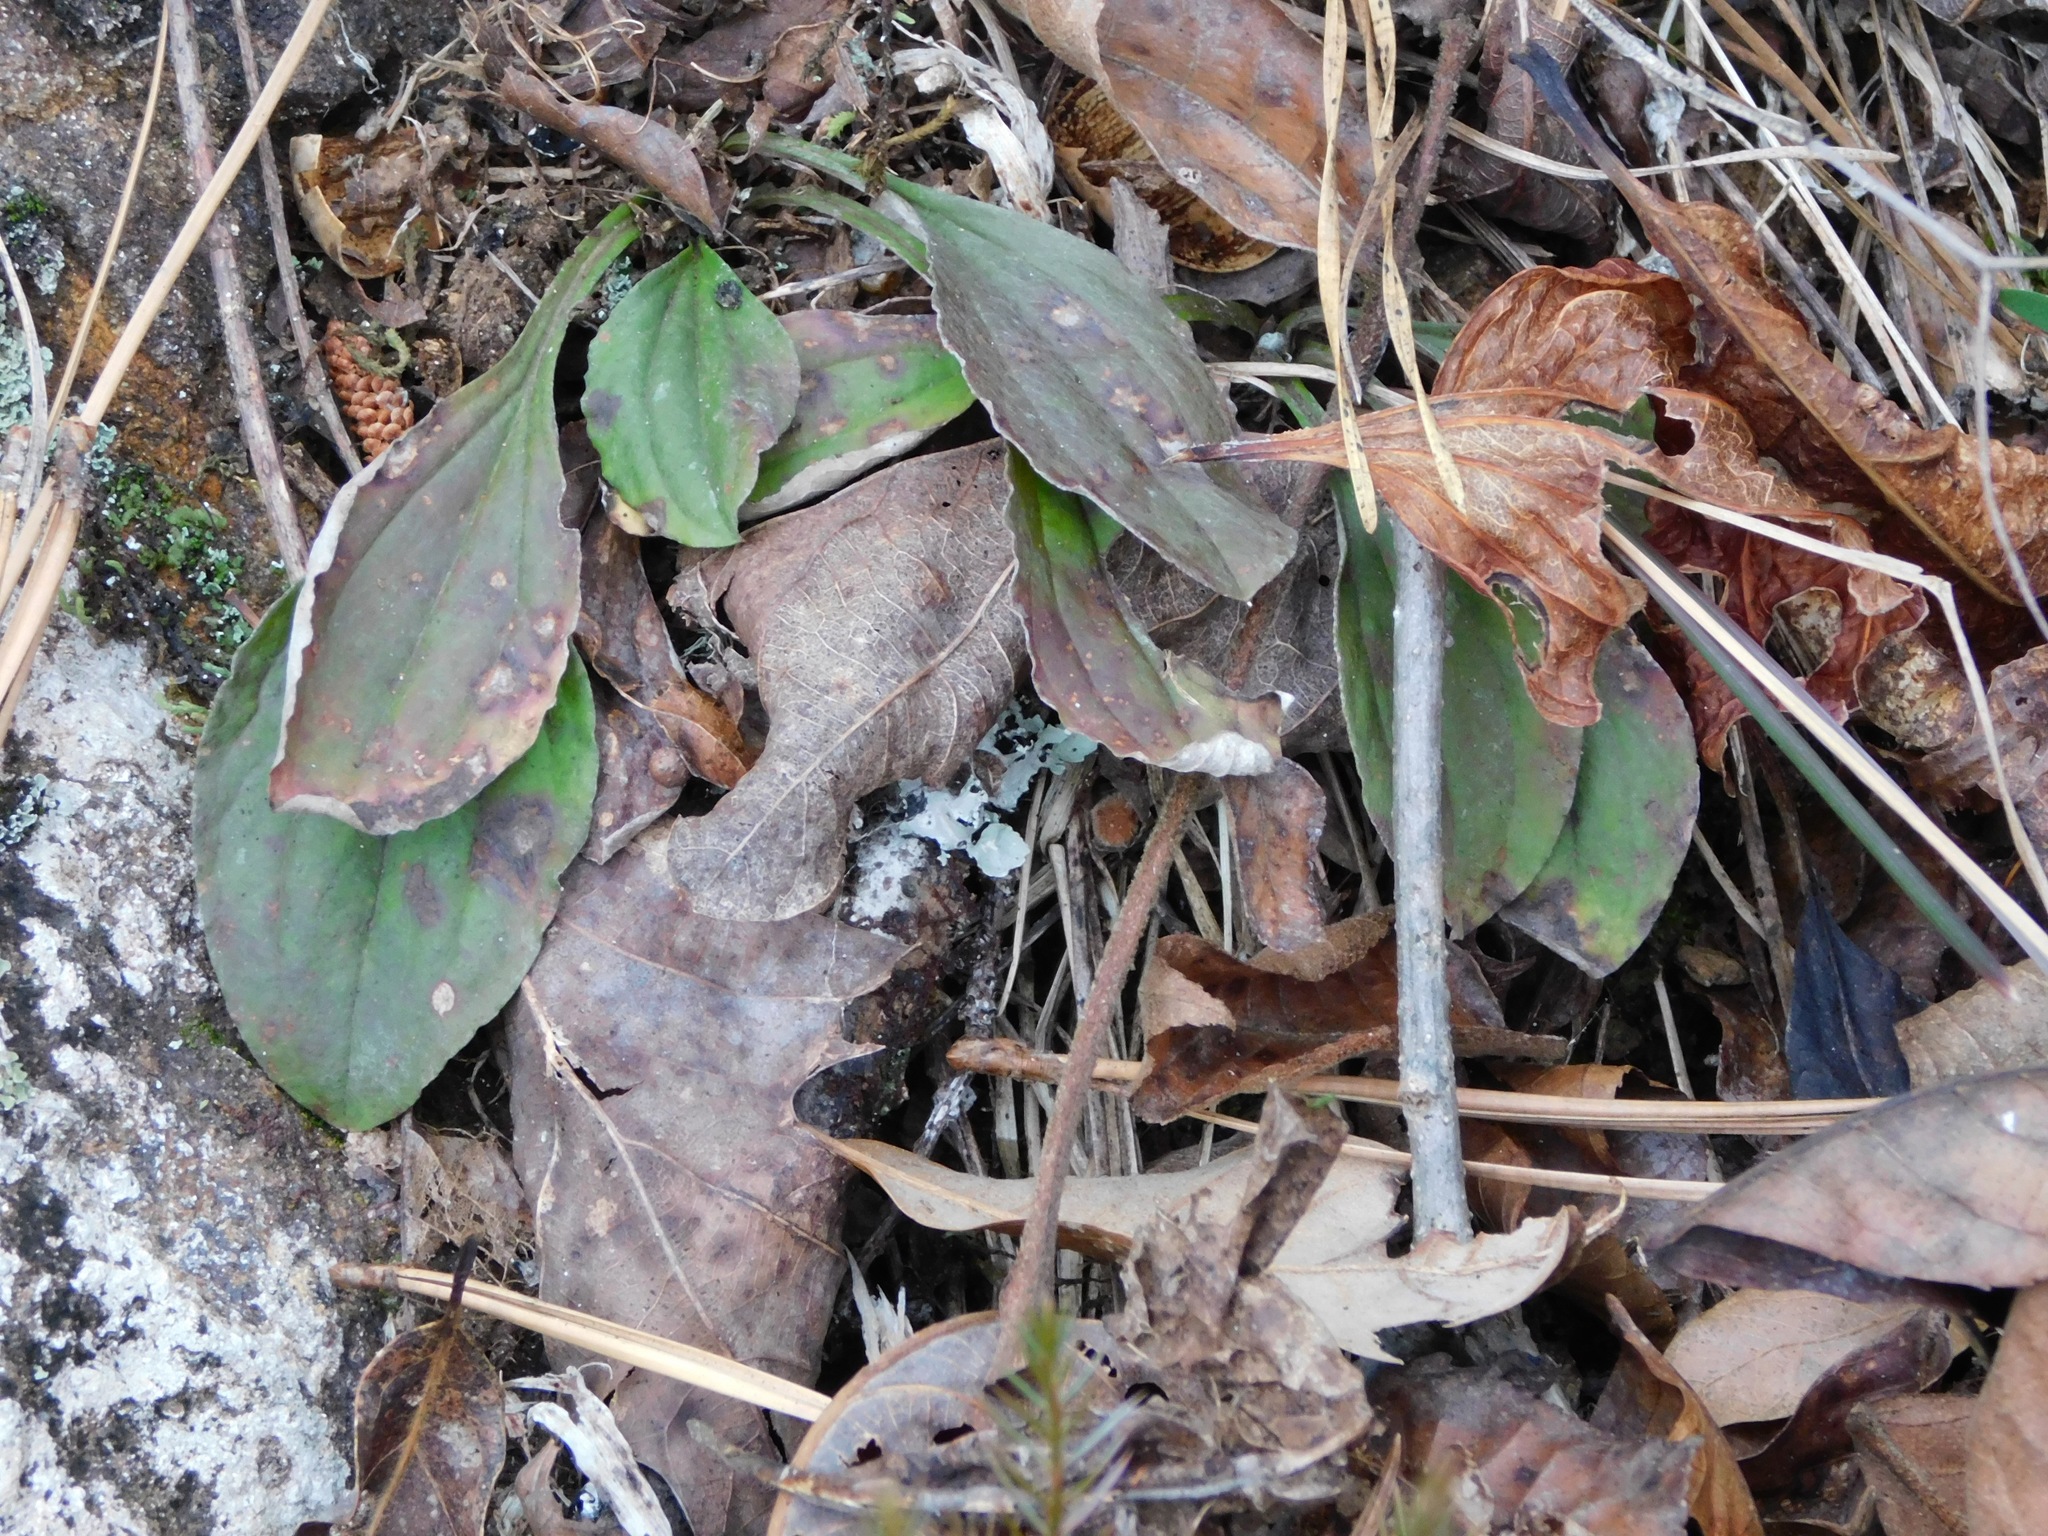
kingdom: Plantae
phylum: Tracheophyta
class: Magnoliopsida
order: Asterales
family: Asteraceae
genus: Antennaria
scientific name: Antennaria plantaginifolia
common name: Plantain-leaved pussytoes
